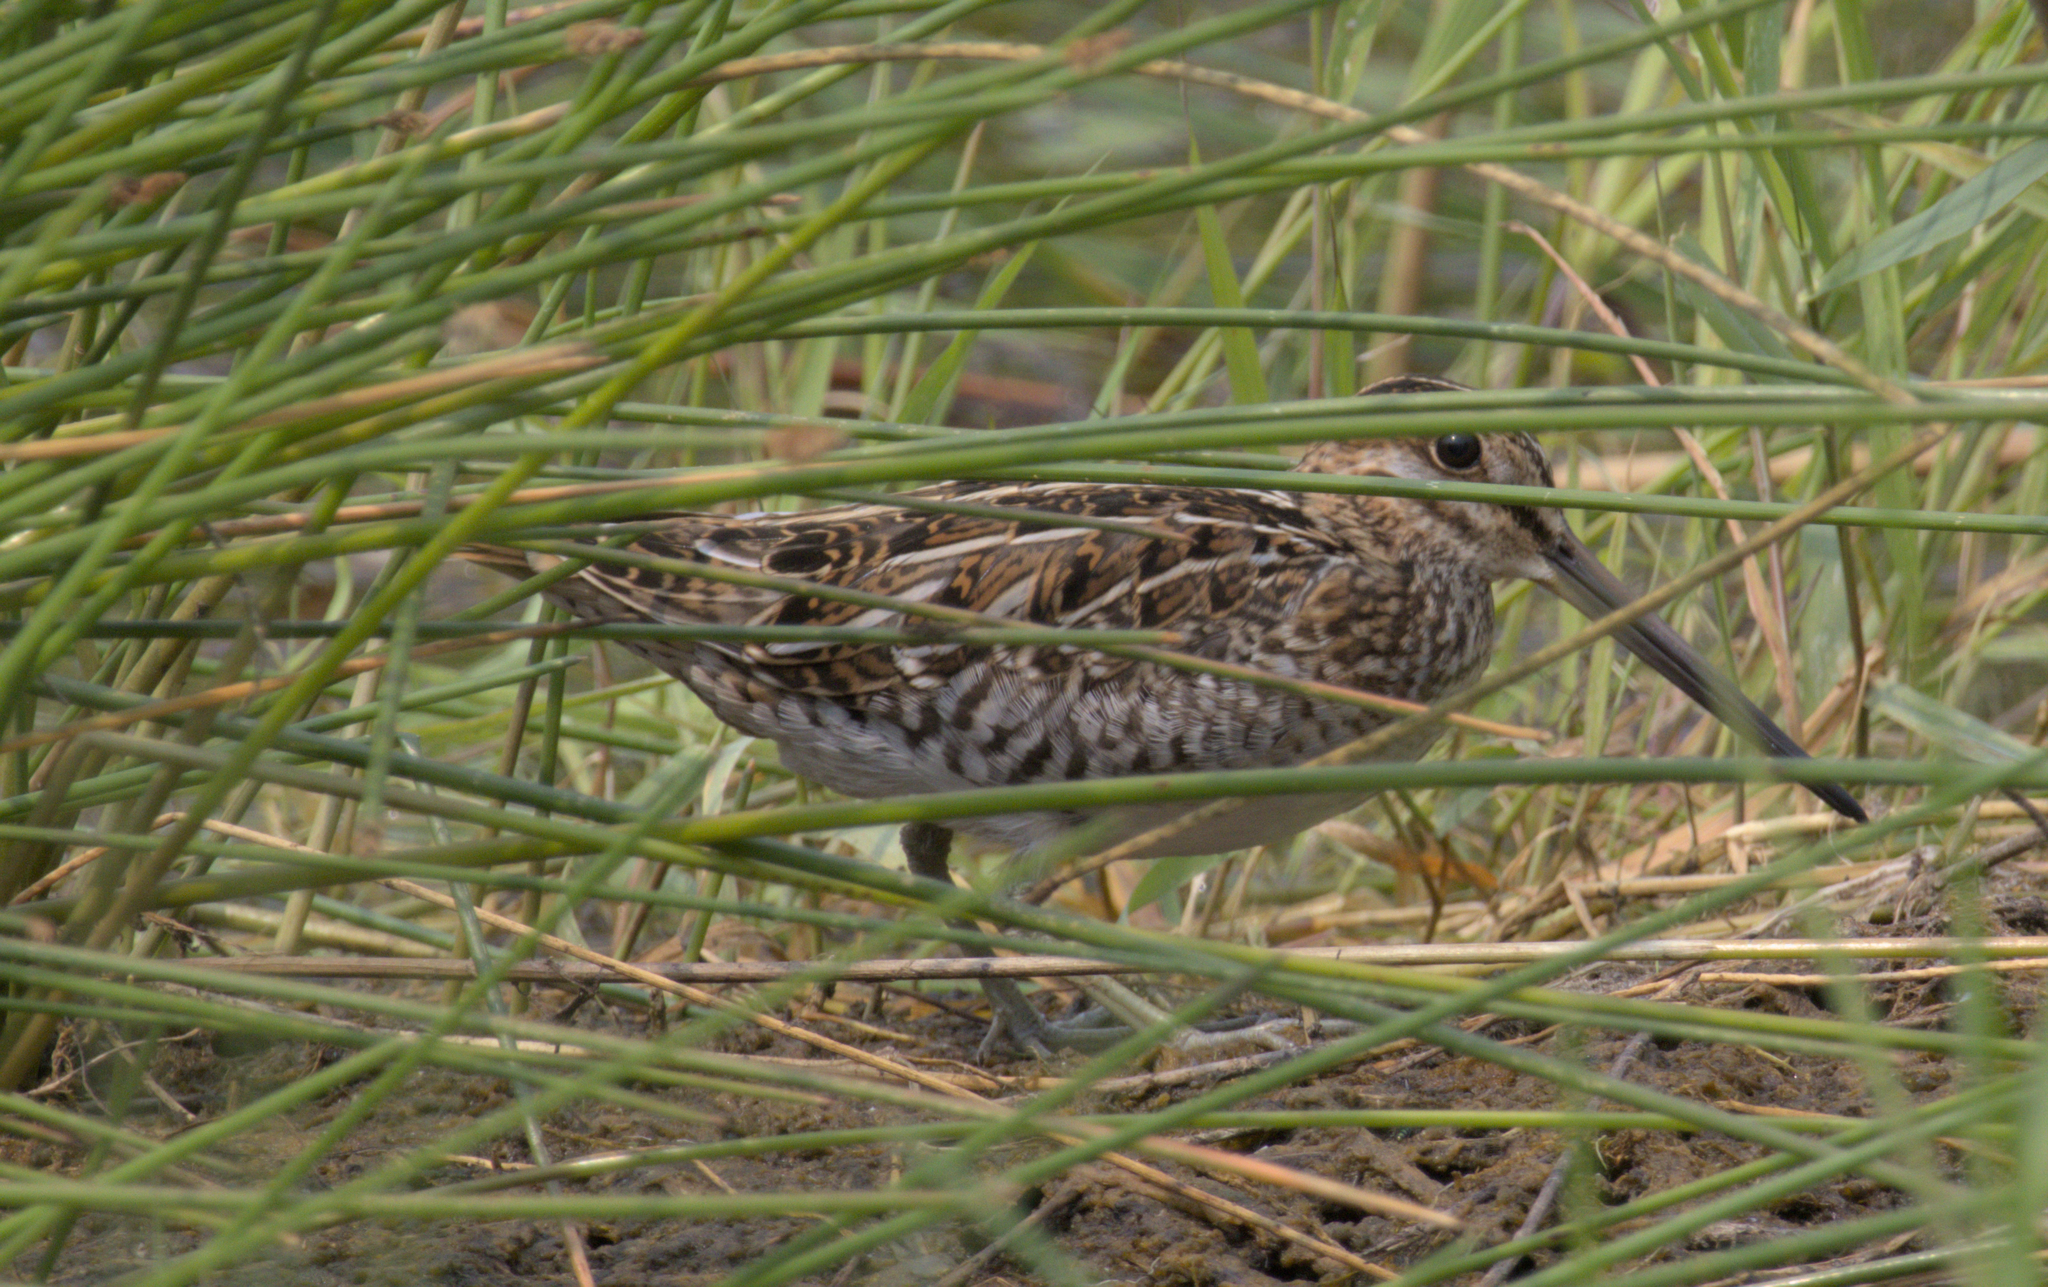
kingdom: Animalia
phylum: Chordata
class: Aves
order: Charadriiformes
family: Scolopacidae
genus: Gallinago
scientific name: Gallinago delicata
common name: Wilson's snipe
